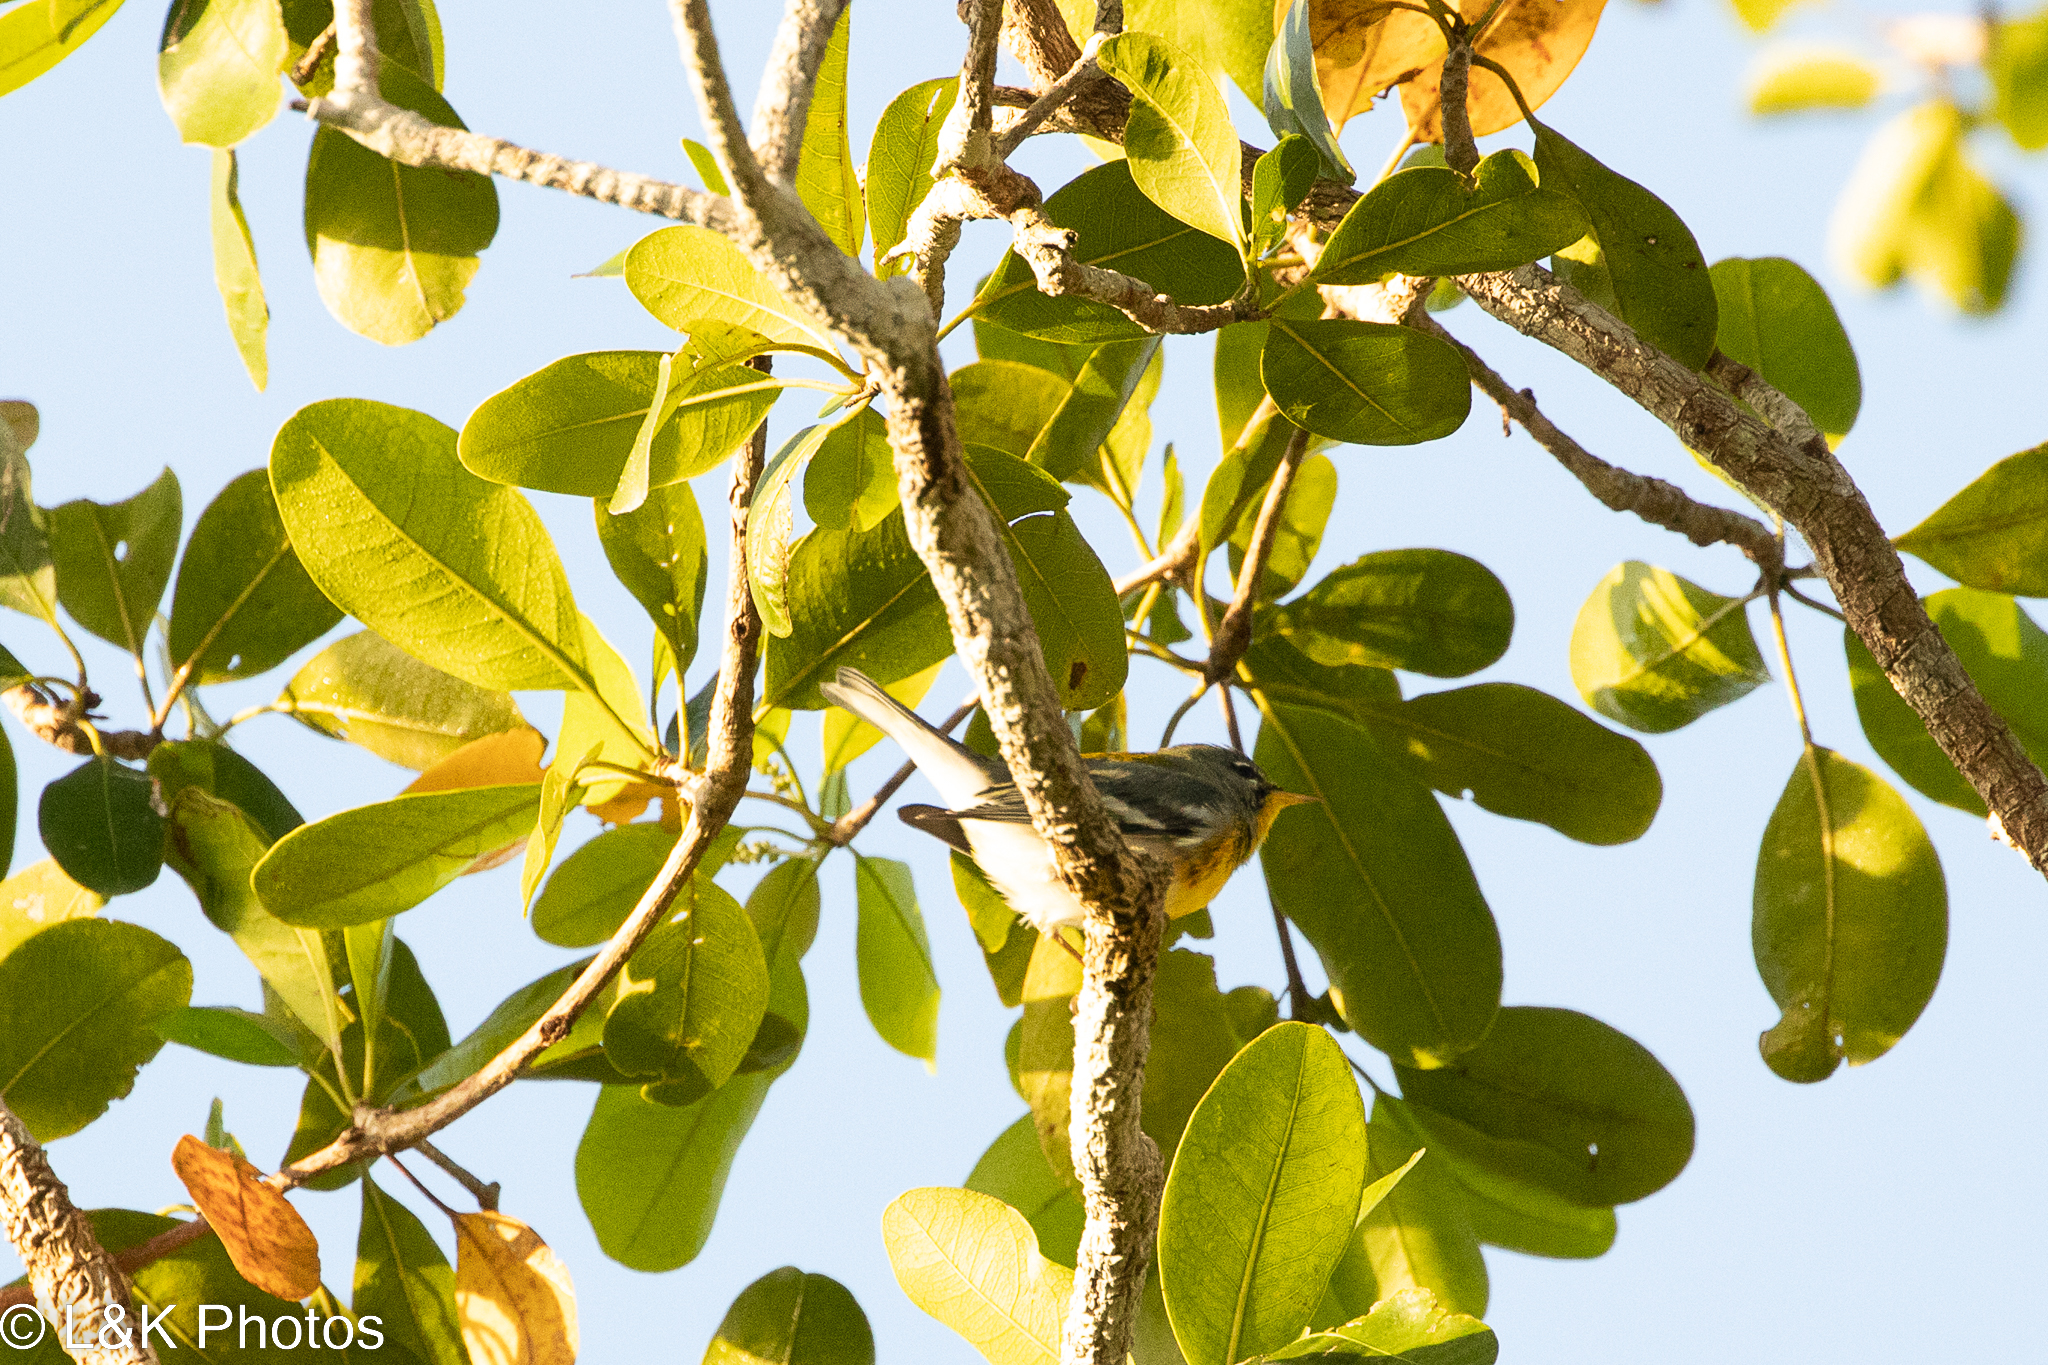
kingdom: Animalia
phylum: Chordata
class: Aves
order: Passeriformes
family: Parulidae
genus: Setophaga
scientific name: Setophaga americana
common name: Northern parula
